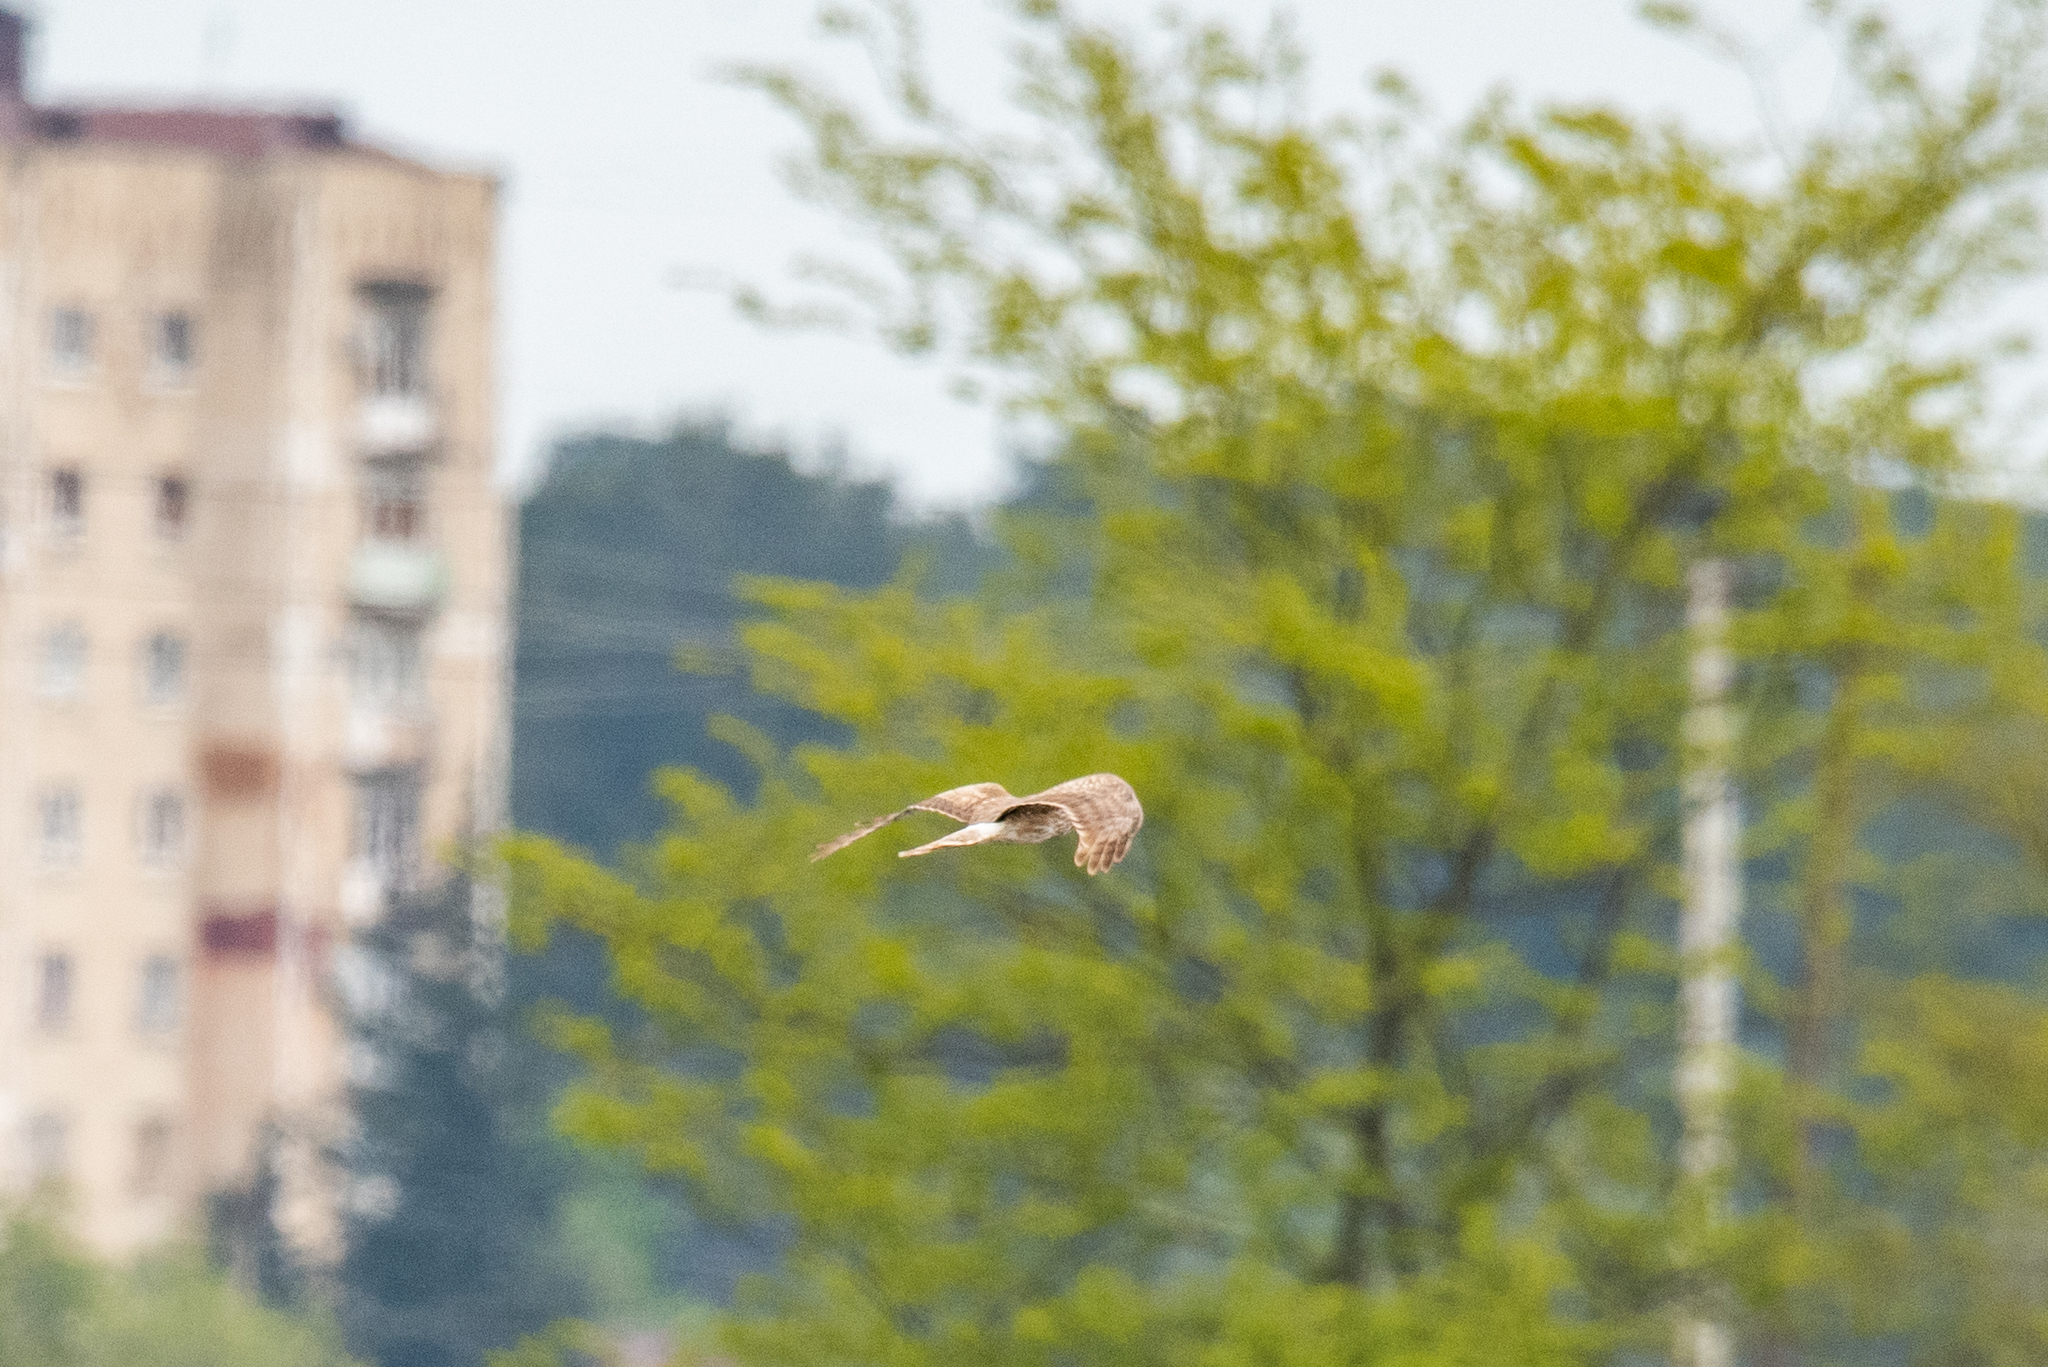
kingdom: Animalia
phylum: Chordata
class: Aves
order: Accipitriformes
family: Accipitridae
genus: Circus
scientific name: Circus cyaneus
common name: Hen harrier
